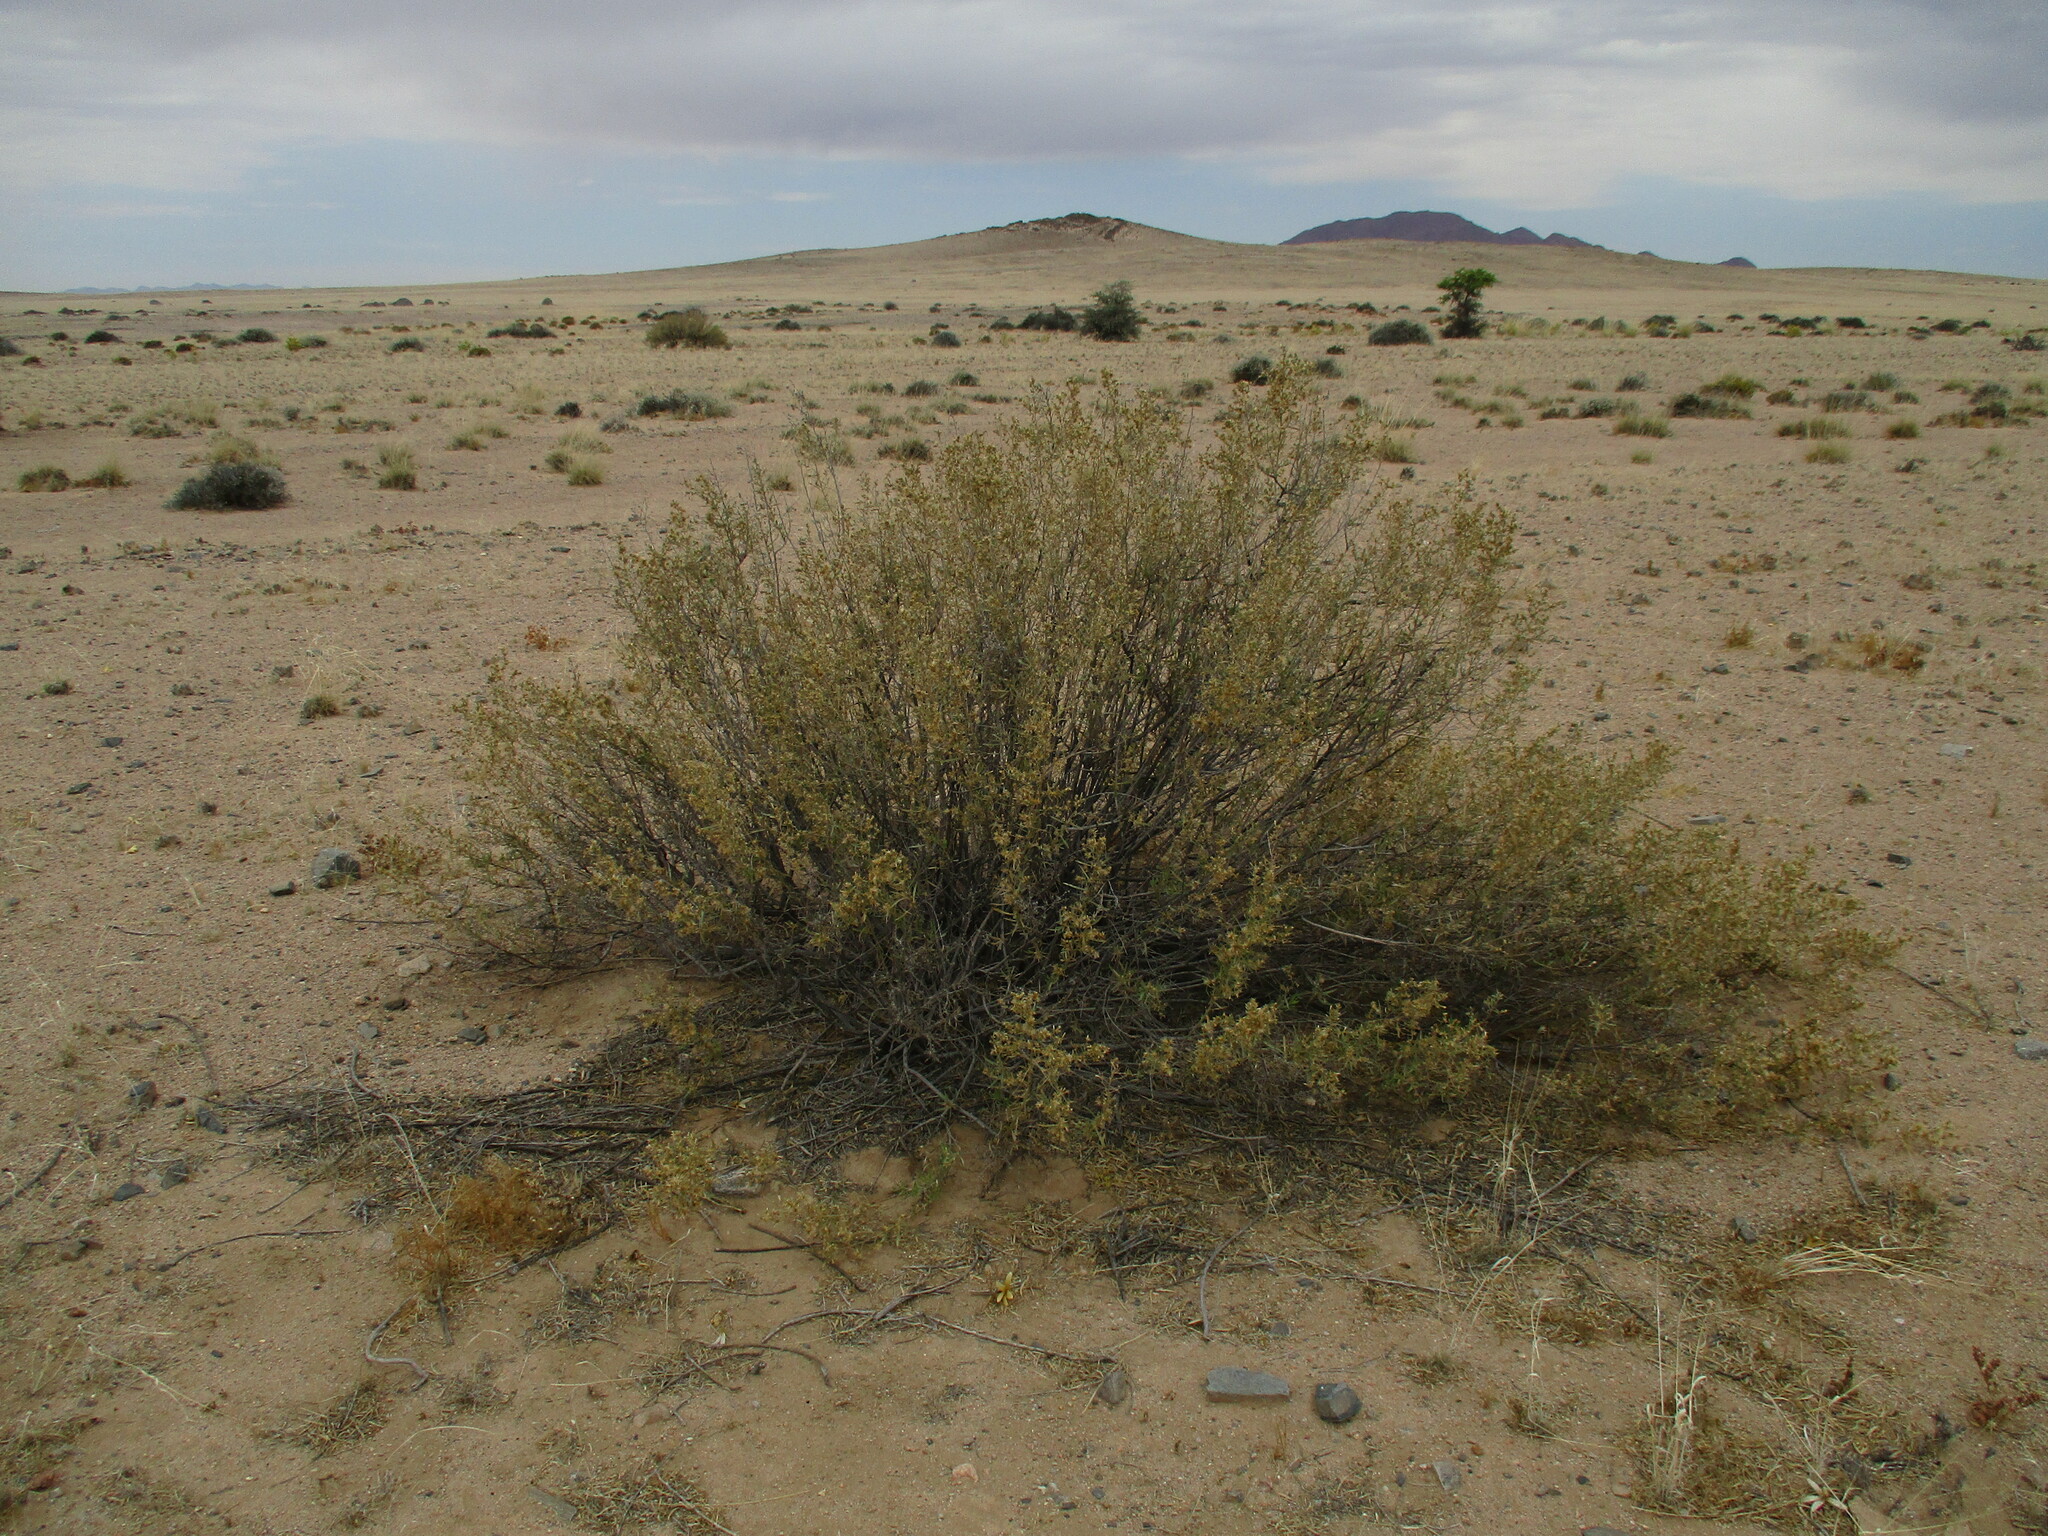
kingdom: Plantae
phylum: Tracheophyta
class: Magnoliopsida
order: Asterales
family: Asteraceae
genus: Pechuel-loeschea
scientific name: Pechuel-loeschea leubnitziae
